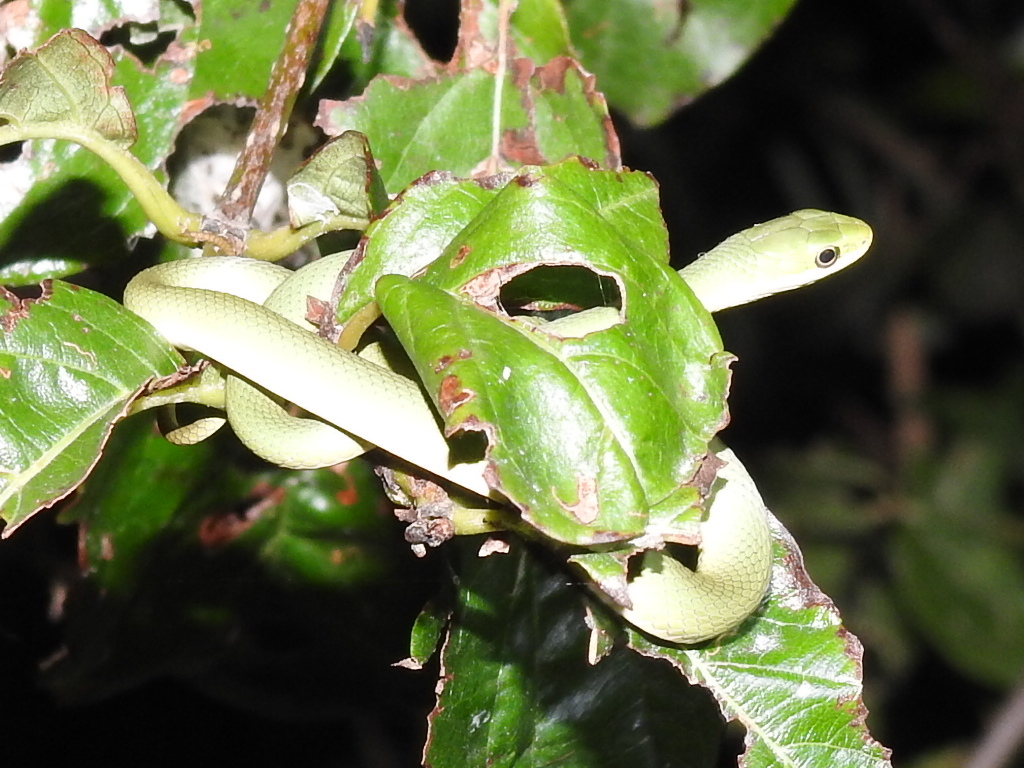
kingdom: Animalia
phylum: Chordata
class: Squamata
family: Colubridae
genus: Opheodrys
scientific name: Opheodrys aestivus
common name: Rough greensnake
